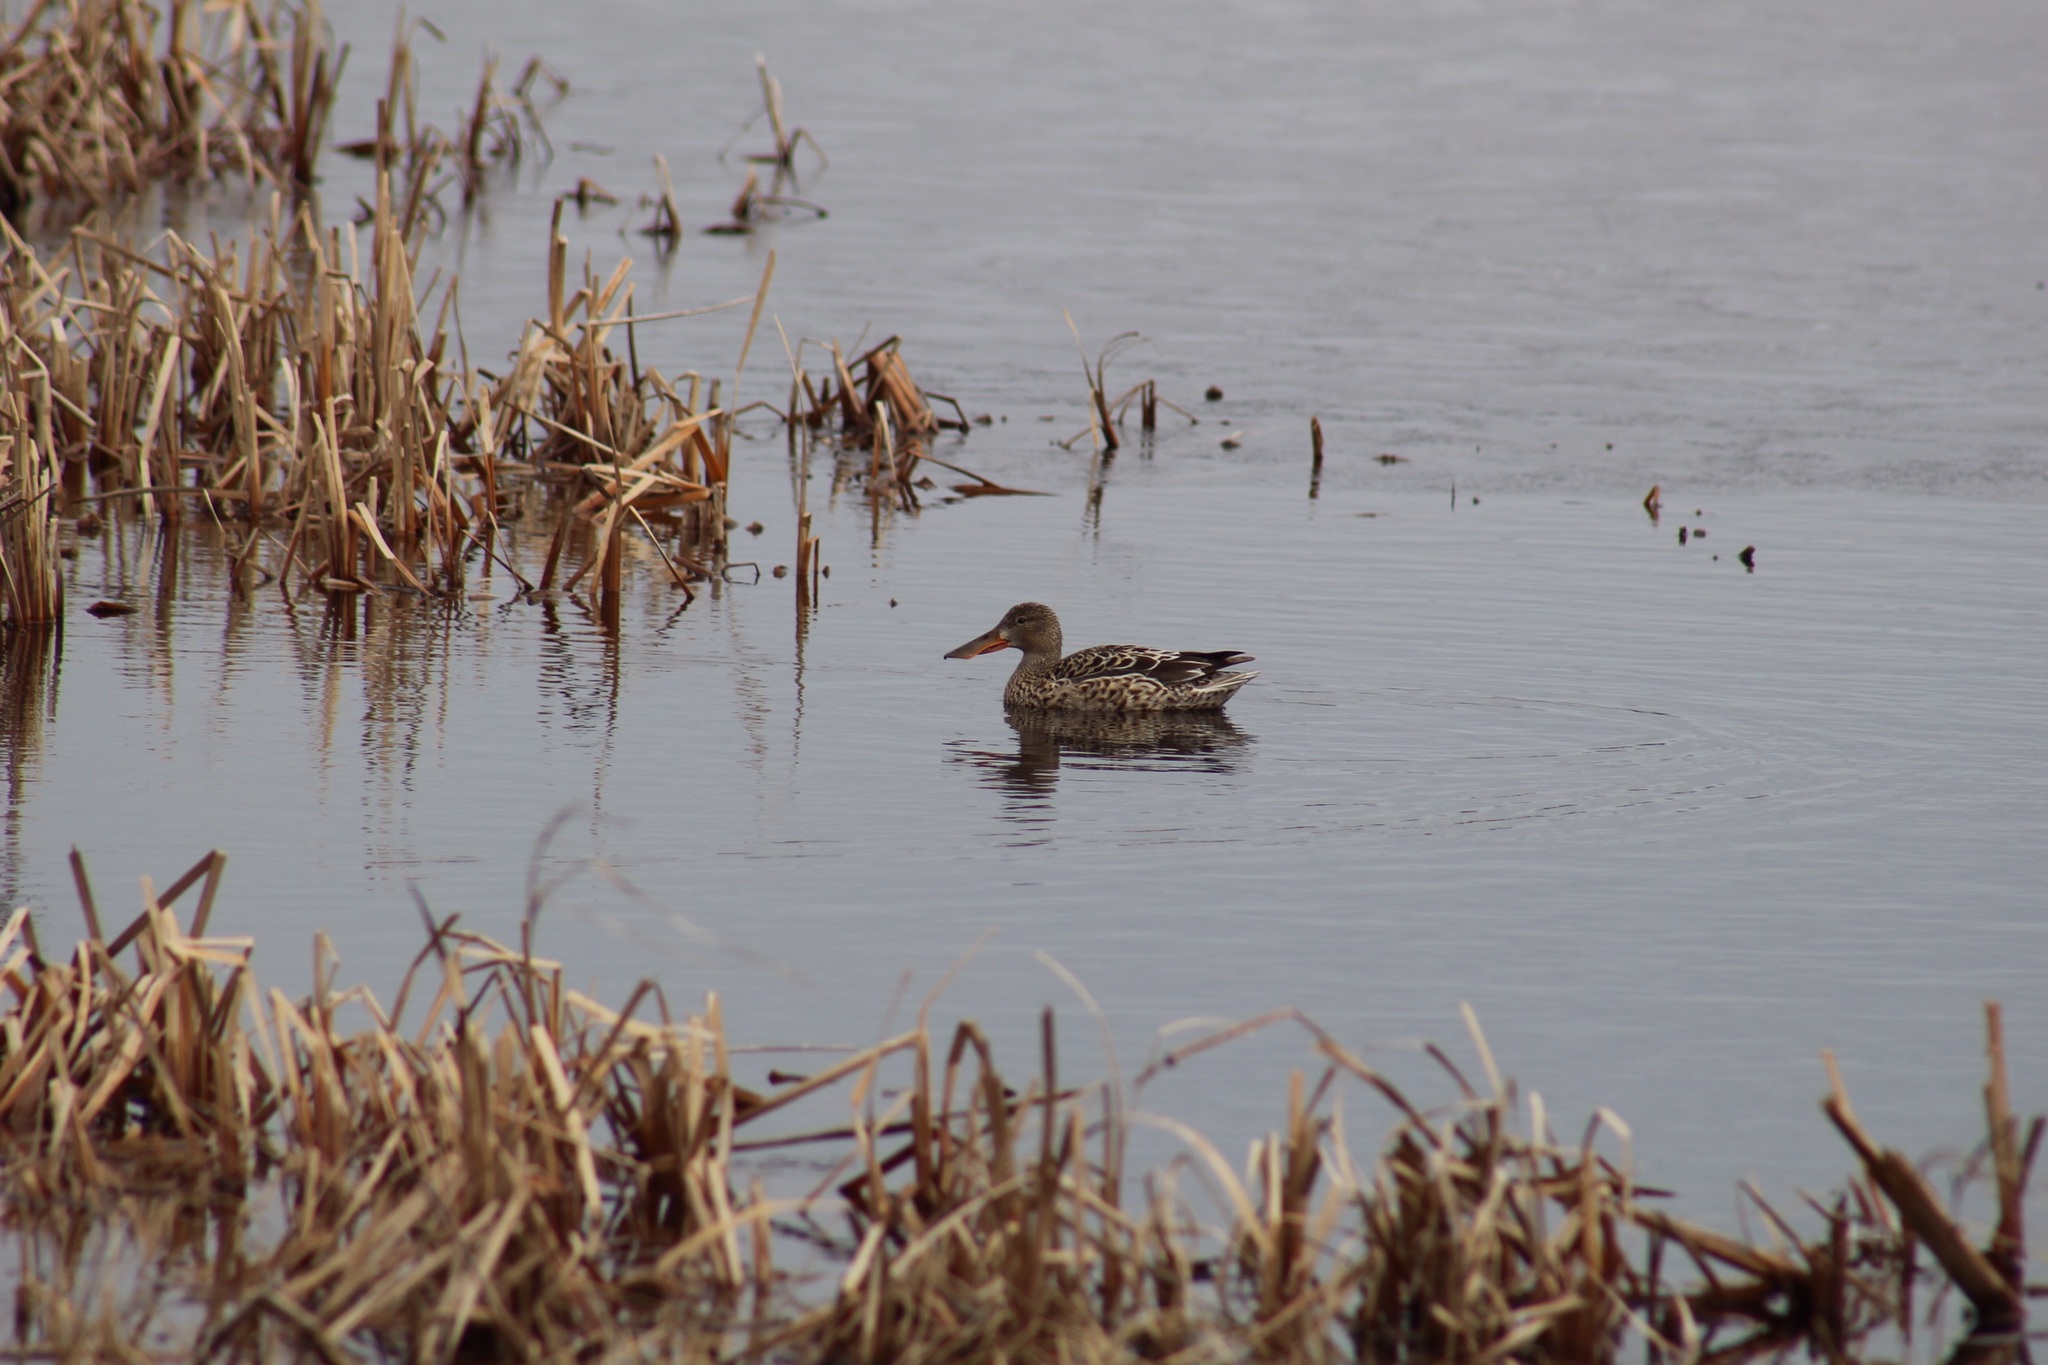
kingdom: Animalia
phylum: Chordata
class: Aves
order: Anseriformes
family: Anatidae
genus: Spatula
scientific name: Spatula clypeata
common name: Northern shoveler
